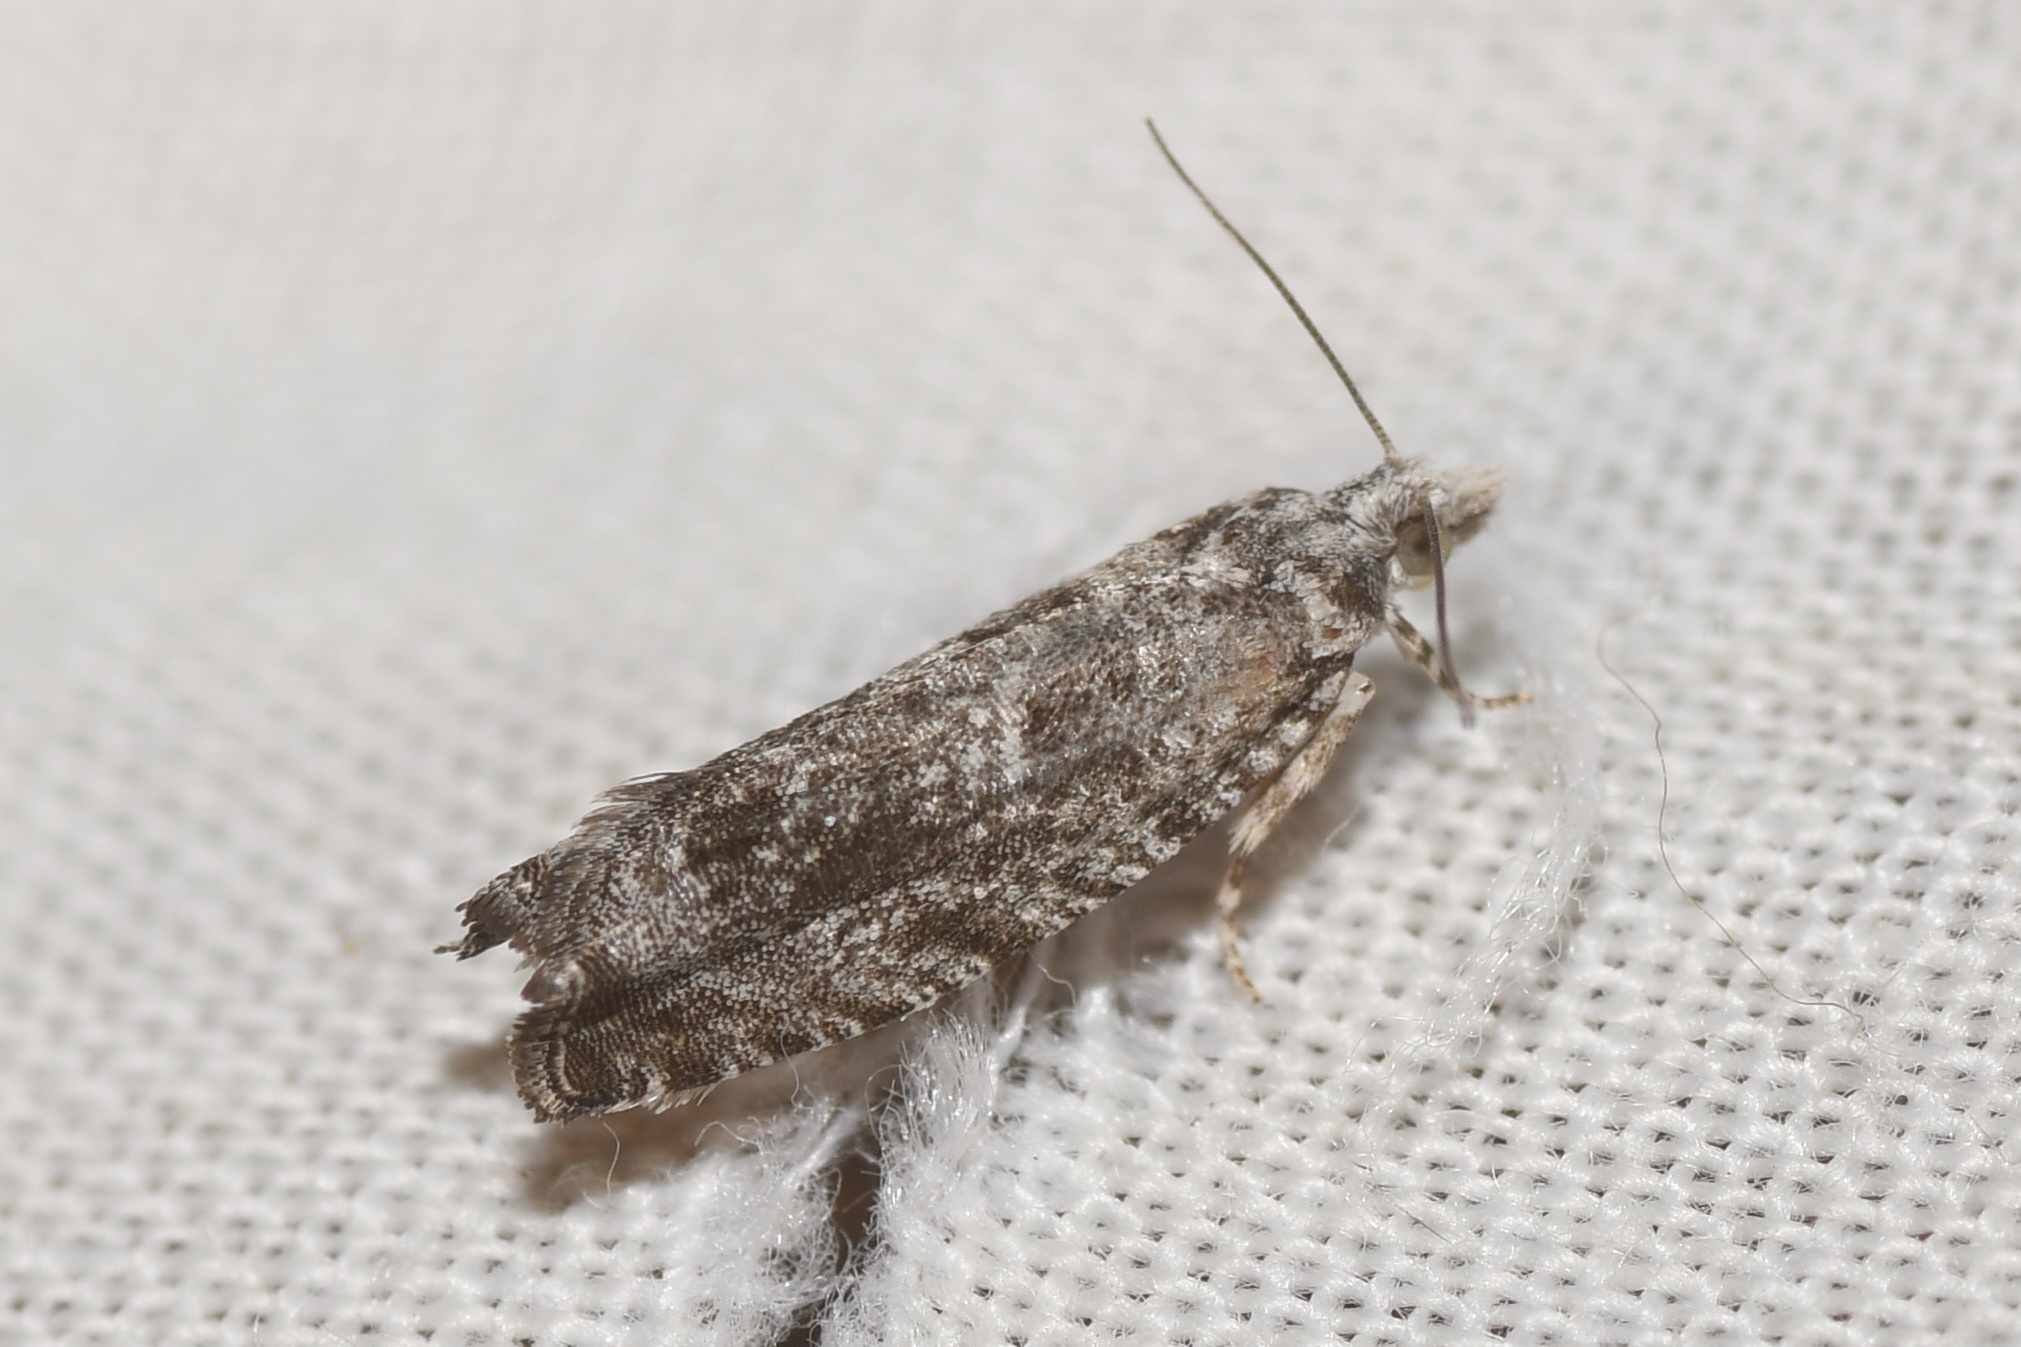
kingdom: Animalia
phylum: Arthropoda
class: Insecta
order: Lepidoptera
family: Tortricidae
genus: Catastega
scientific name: Catastega aceriella
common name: Maple trumpet skeletonizer moth
